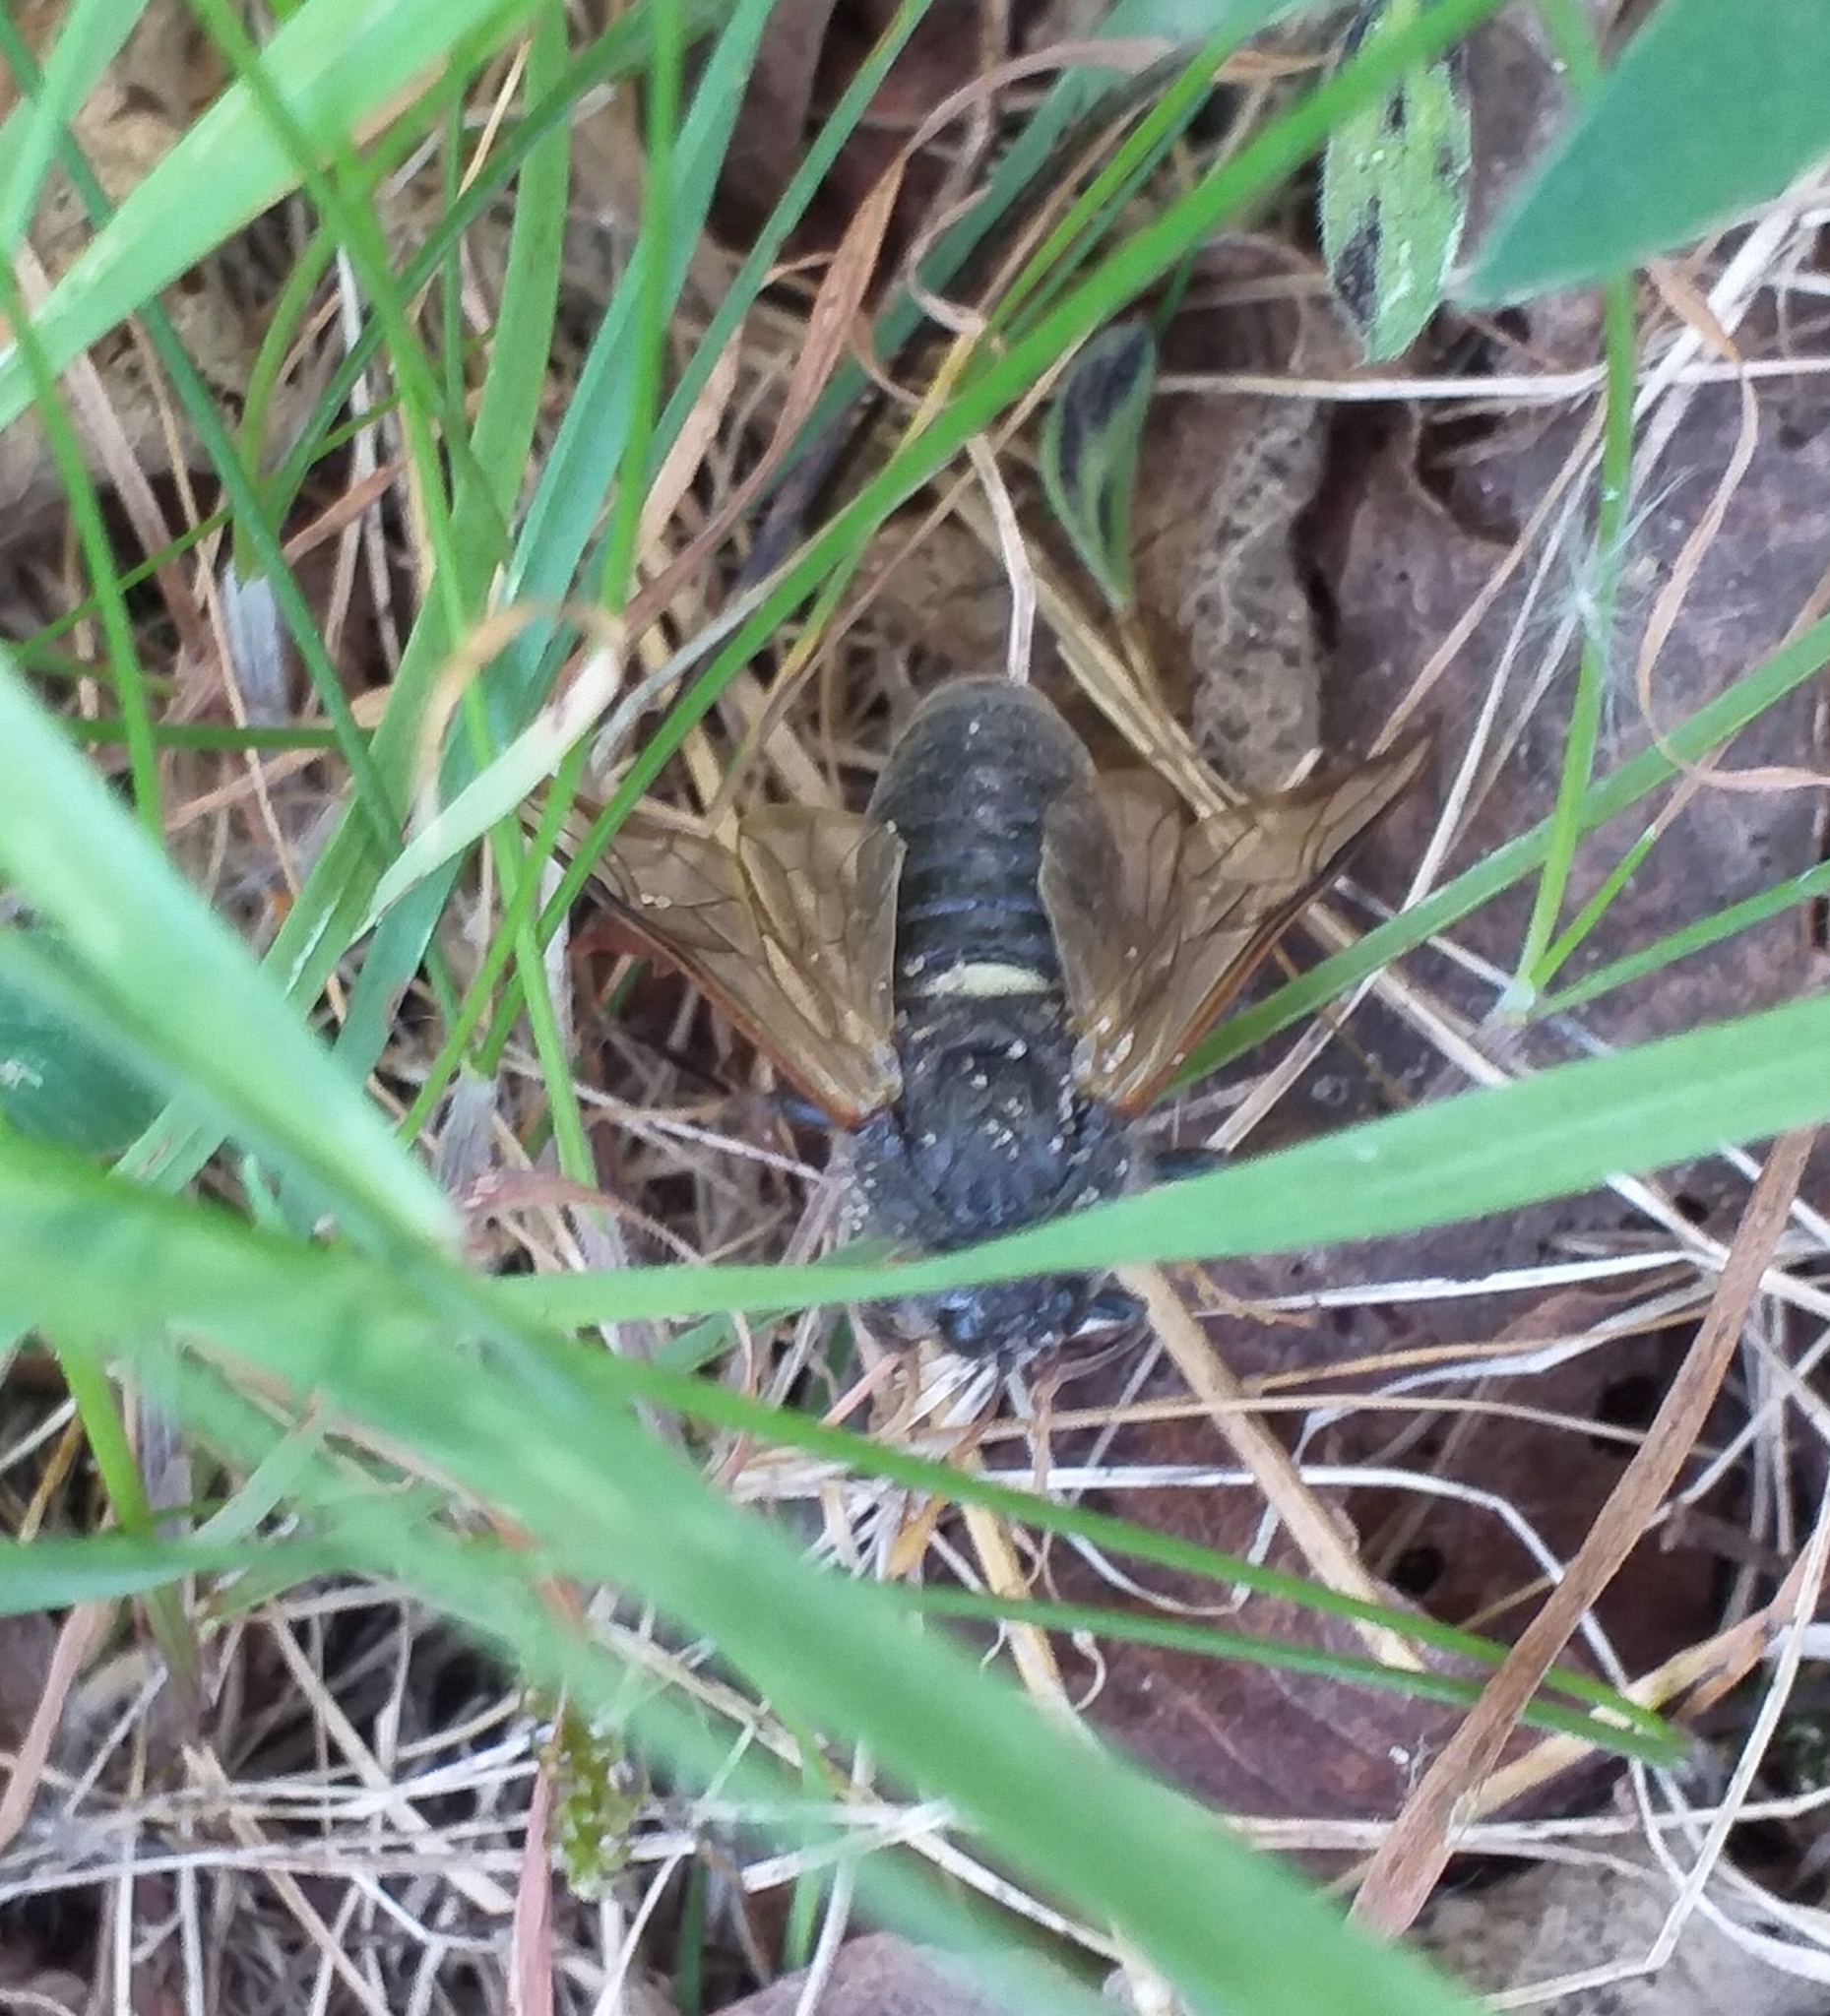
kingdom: Animalia
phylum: Arthropoda
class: Insecta
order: Hymenoptera
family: Cimbicidae
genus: Cimbex
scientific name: Cimbex femoratus
